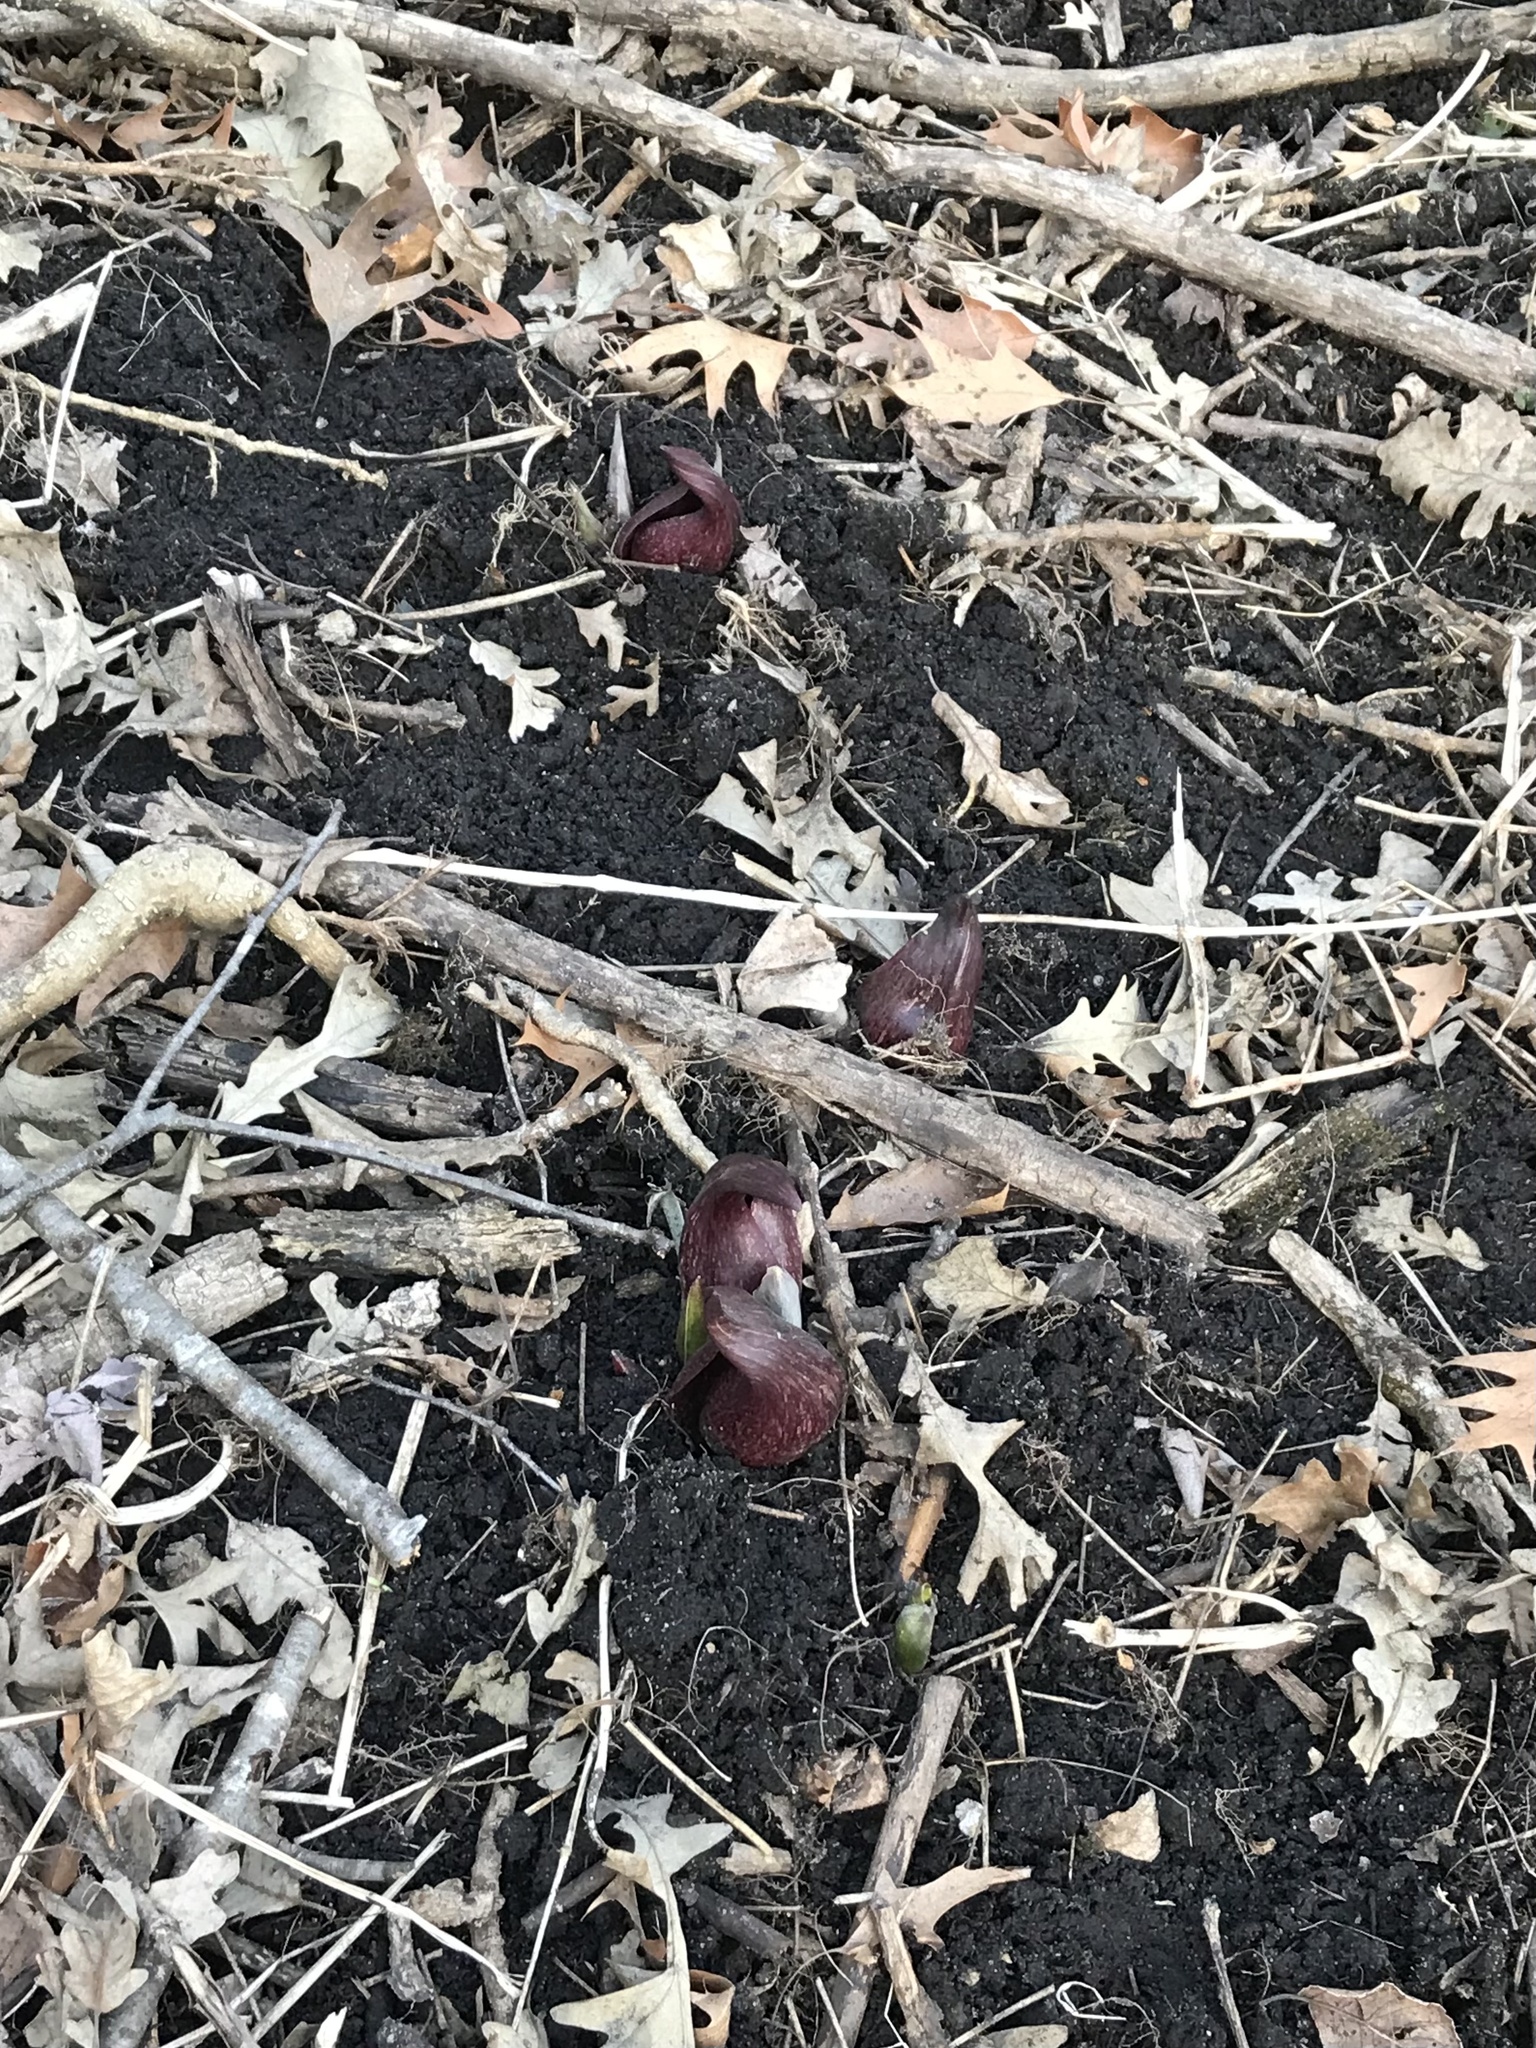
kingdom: Plantae
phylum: Tracheophyta
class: Liliopsida
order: Alismatales
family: Araceae
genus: Symplocarpus
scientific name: Symplocarpus foetidus
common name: Eastern skunk cabbage
